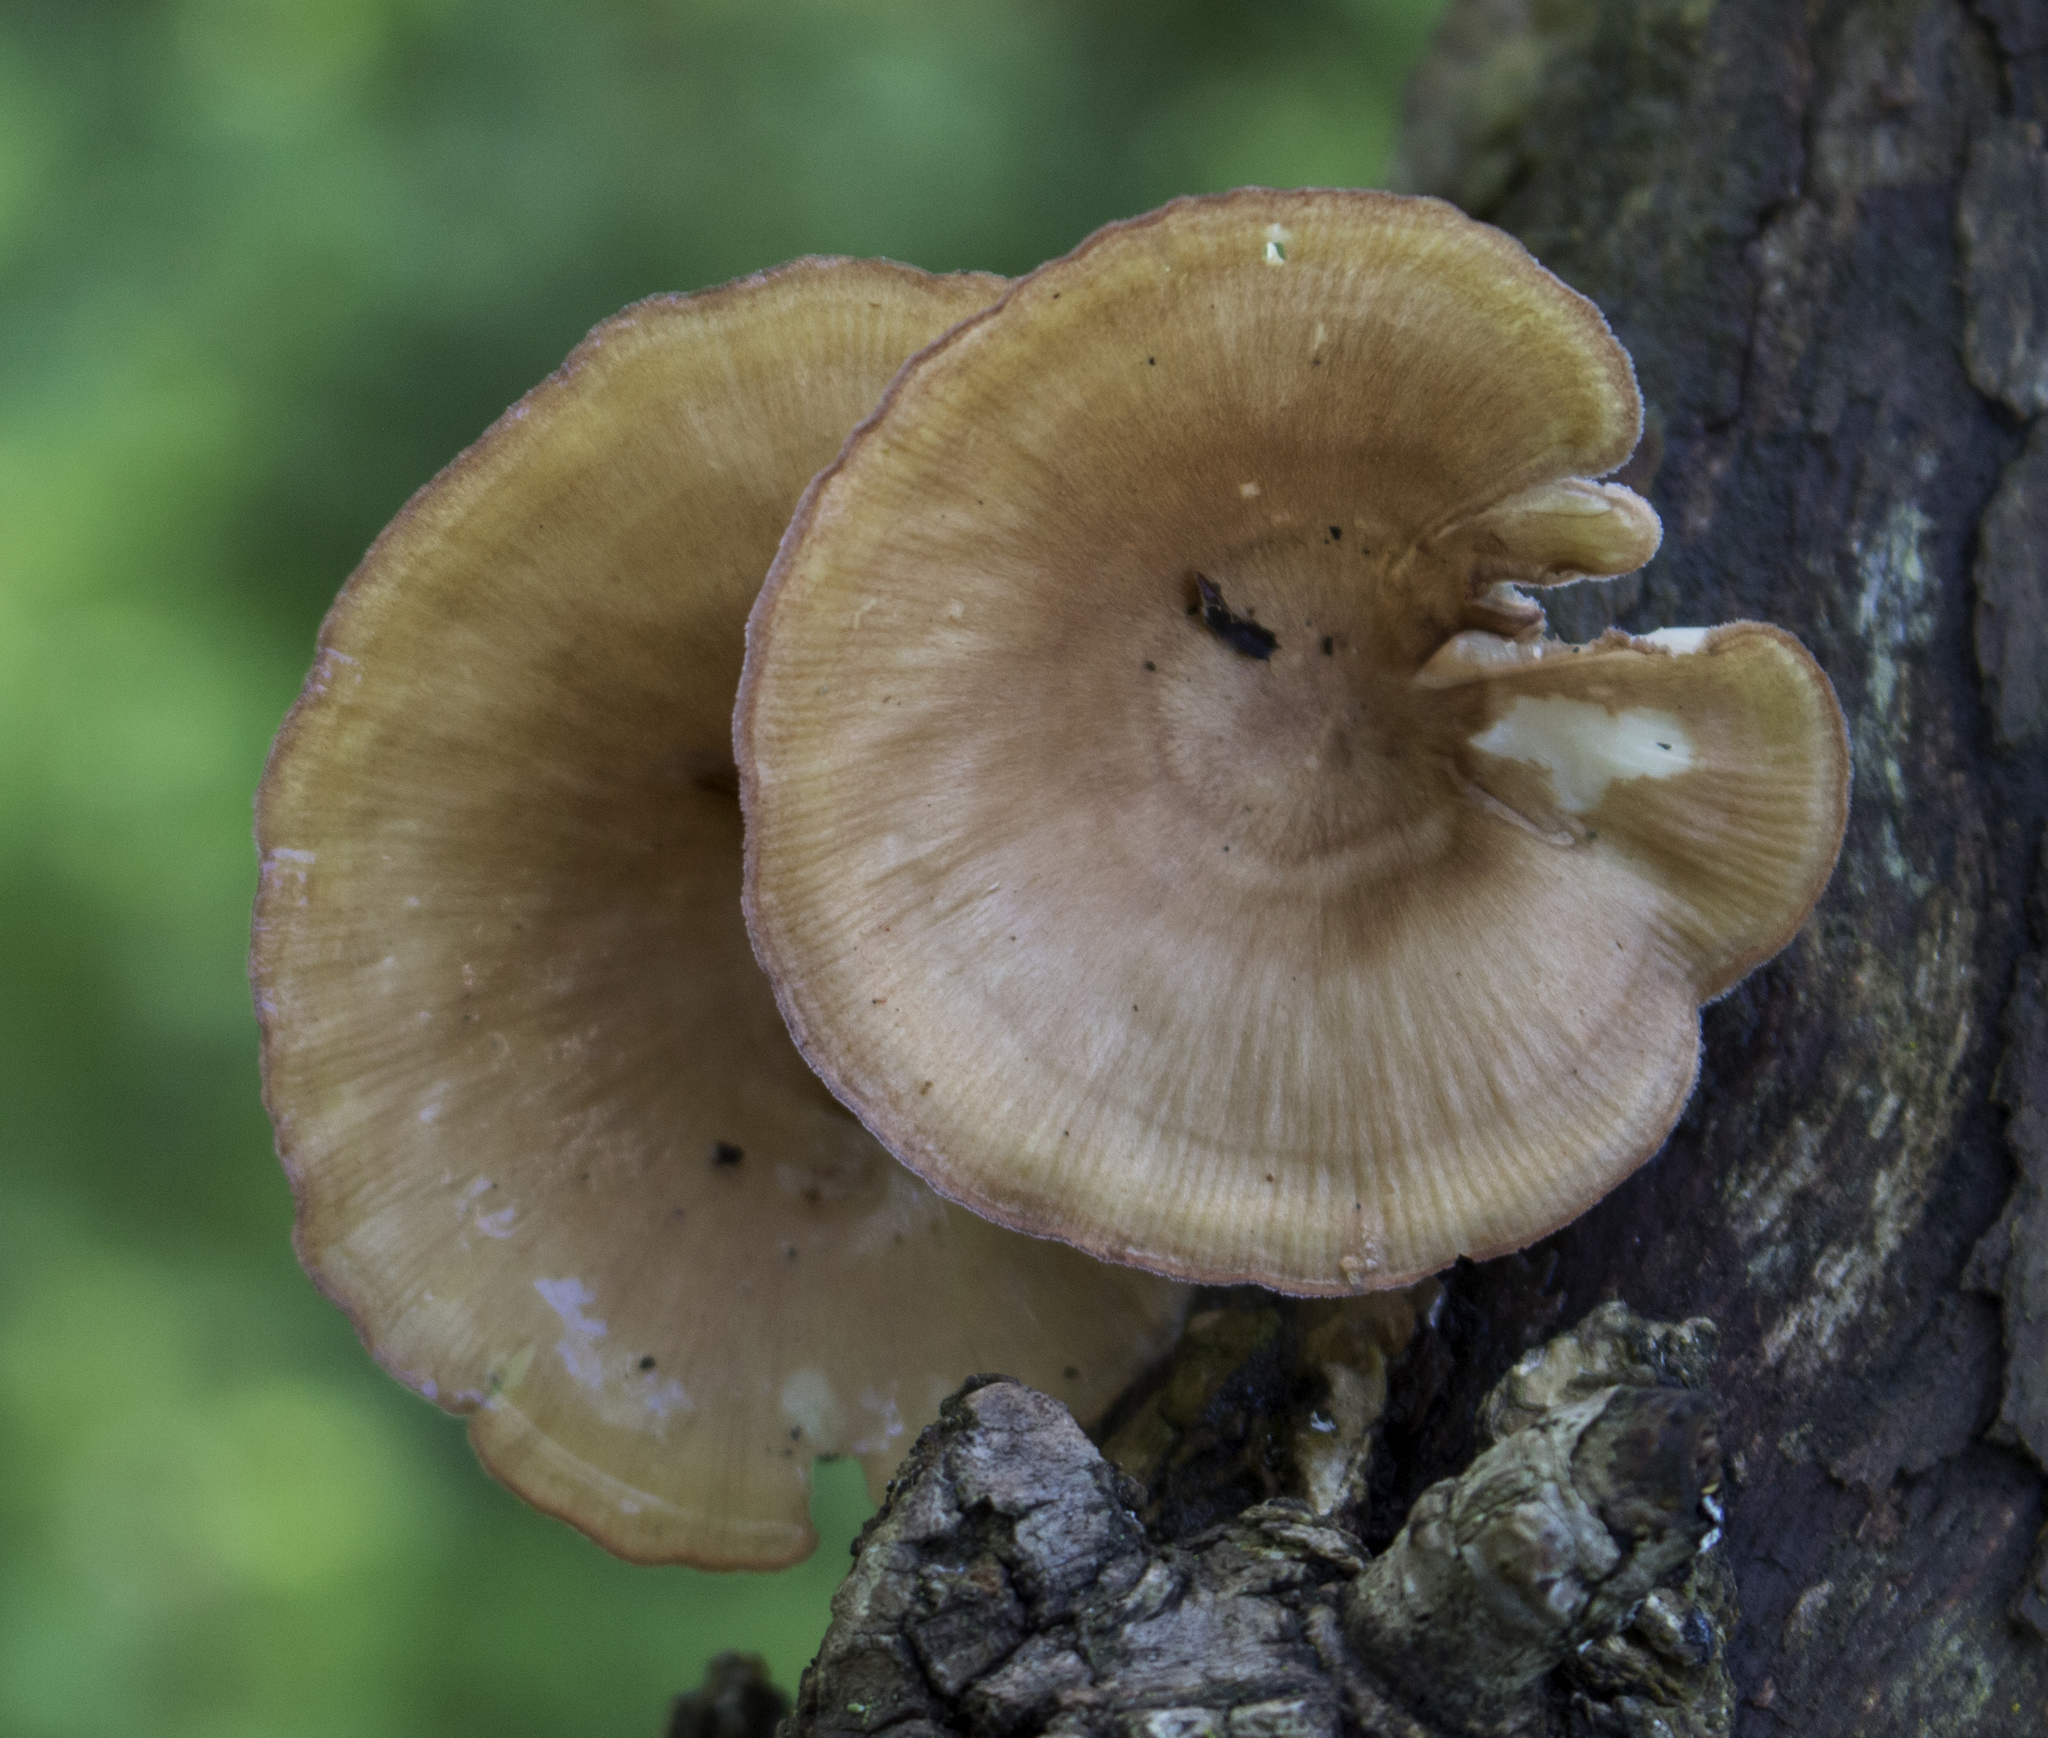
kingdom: Fungi
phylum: Basidiomycota
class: Agaricomycetes
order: Polyporales
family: Panaceae
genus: Panus
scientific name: Panus conchatus
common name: Lilac oysterling
